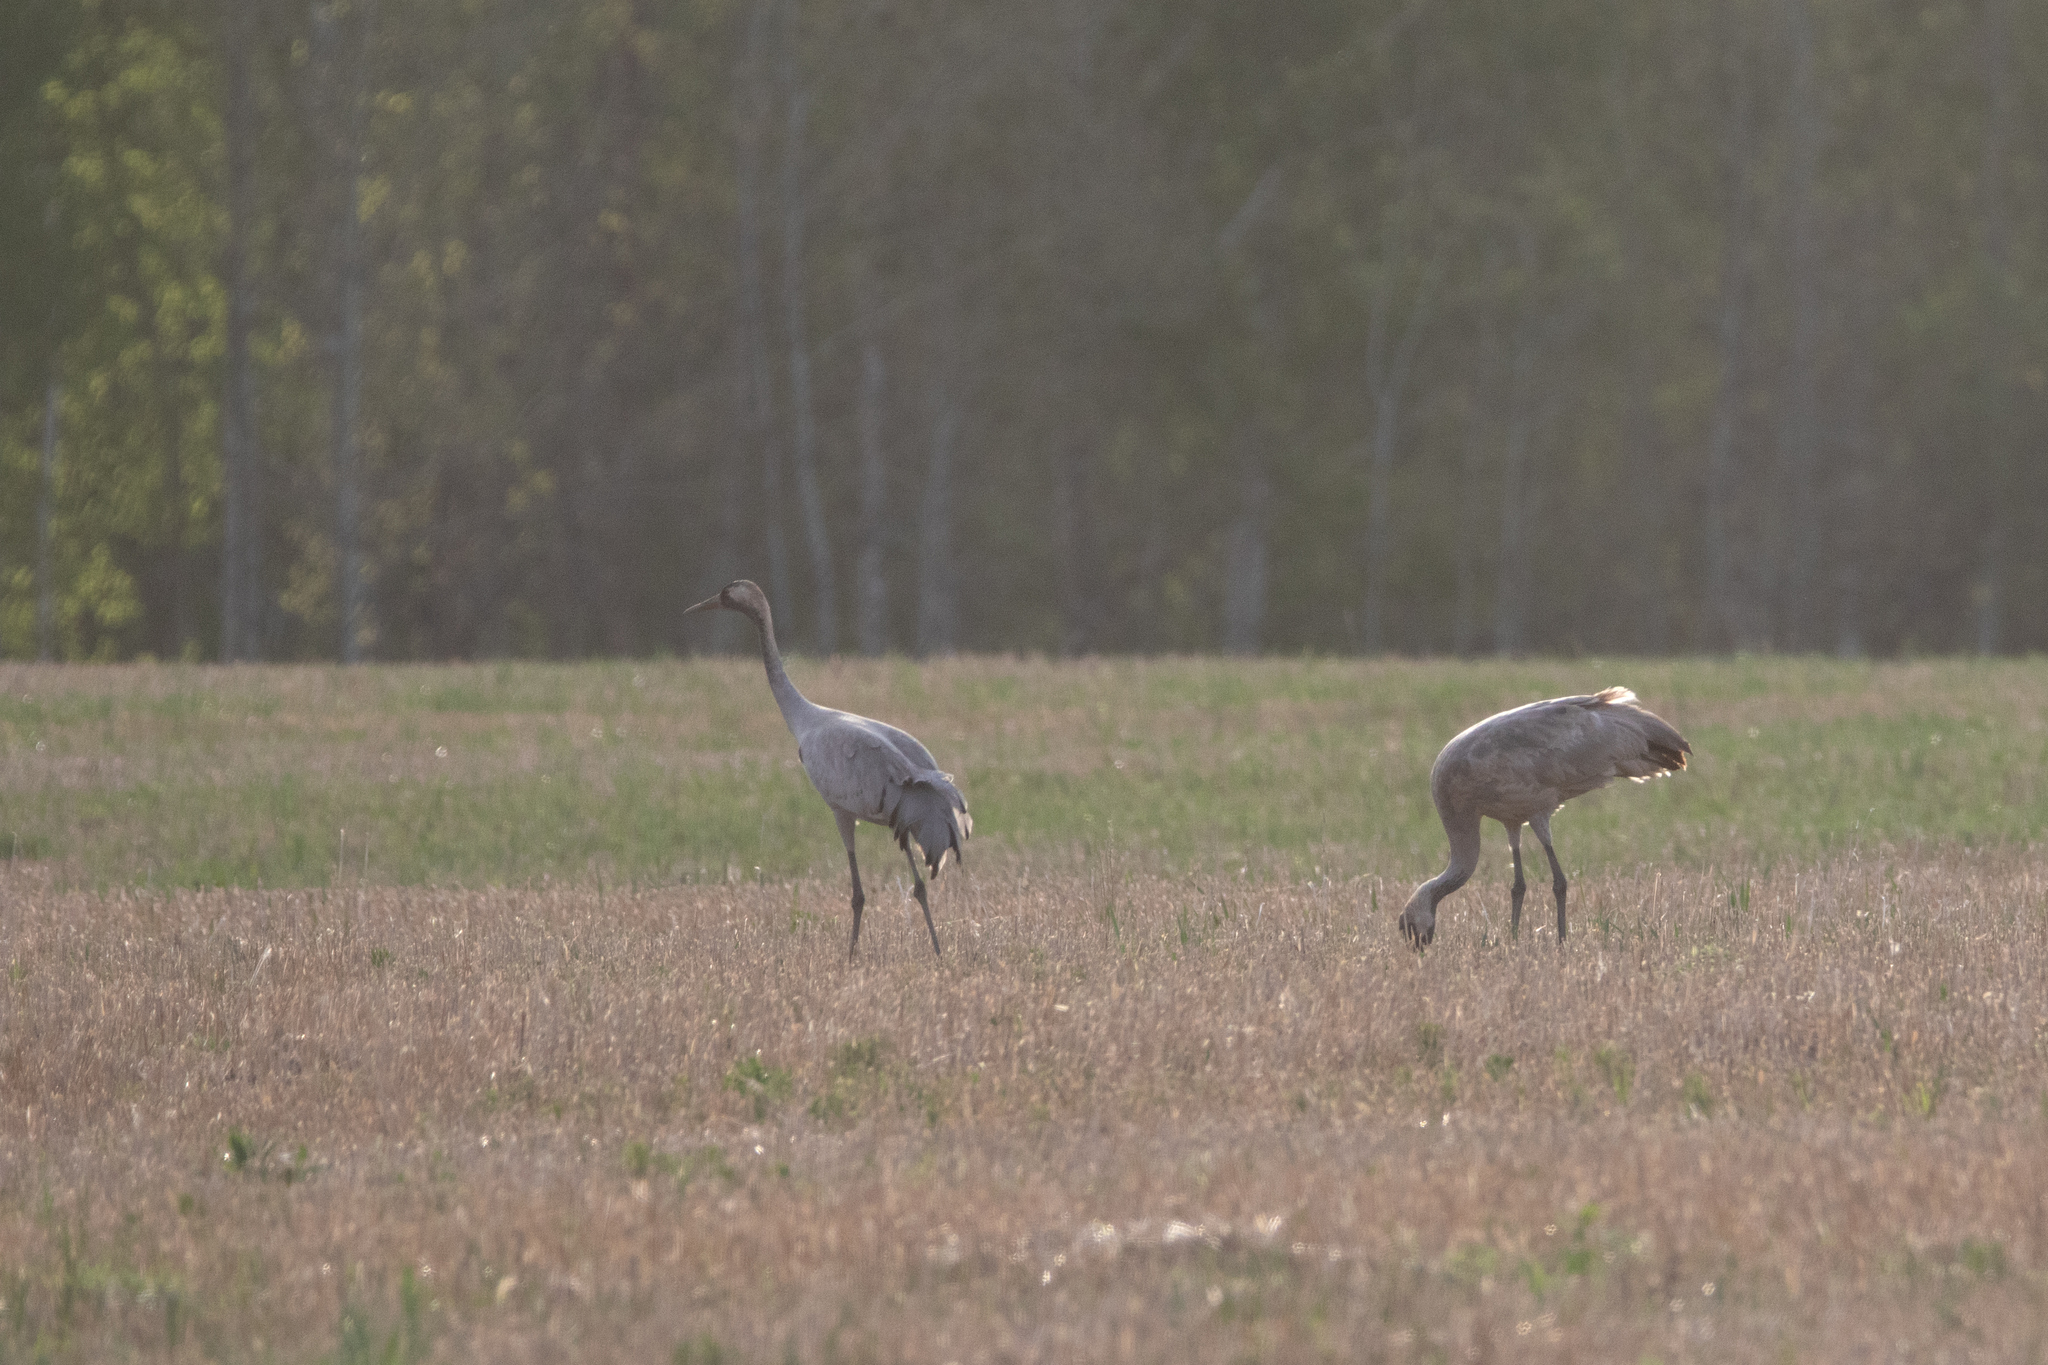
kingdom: Animalia
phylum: Chordata
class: Aves
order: Gruiformes
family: Gruidae
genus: Grus
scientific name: Grus grus
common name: Common crane
